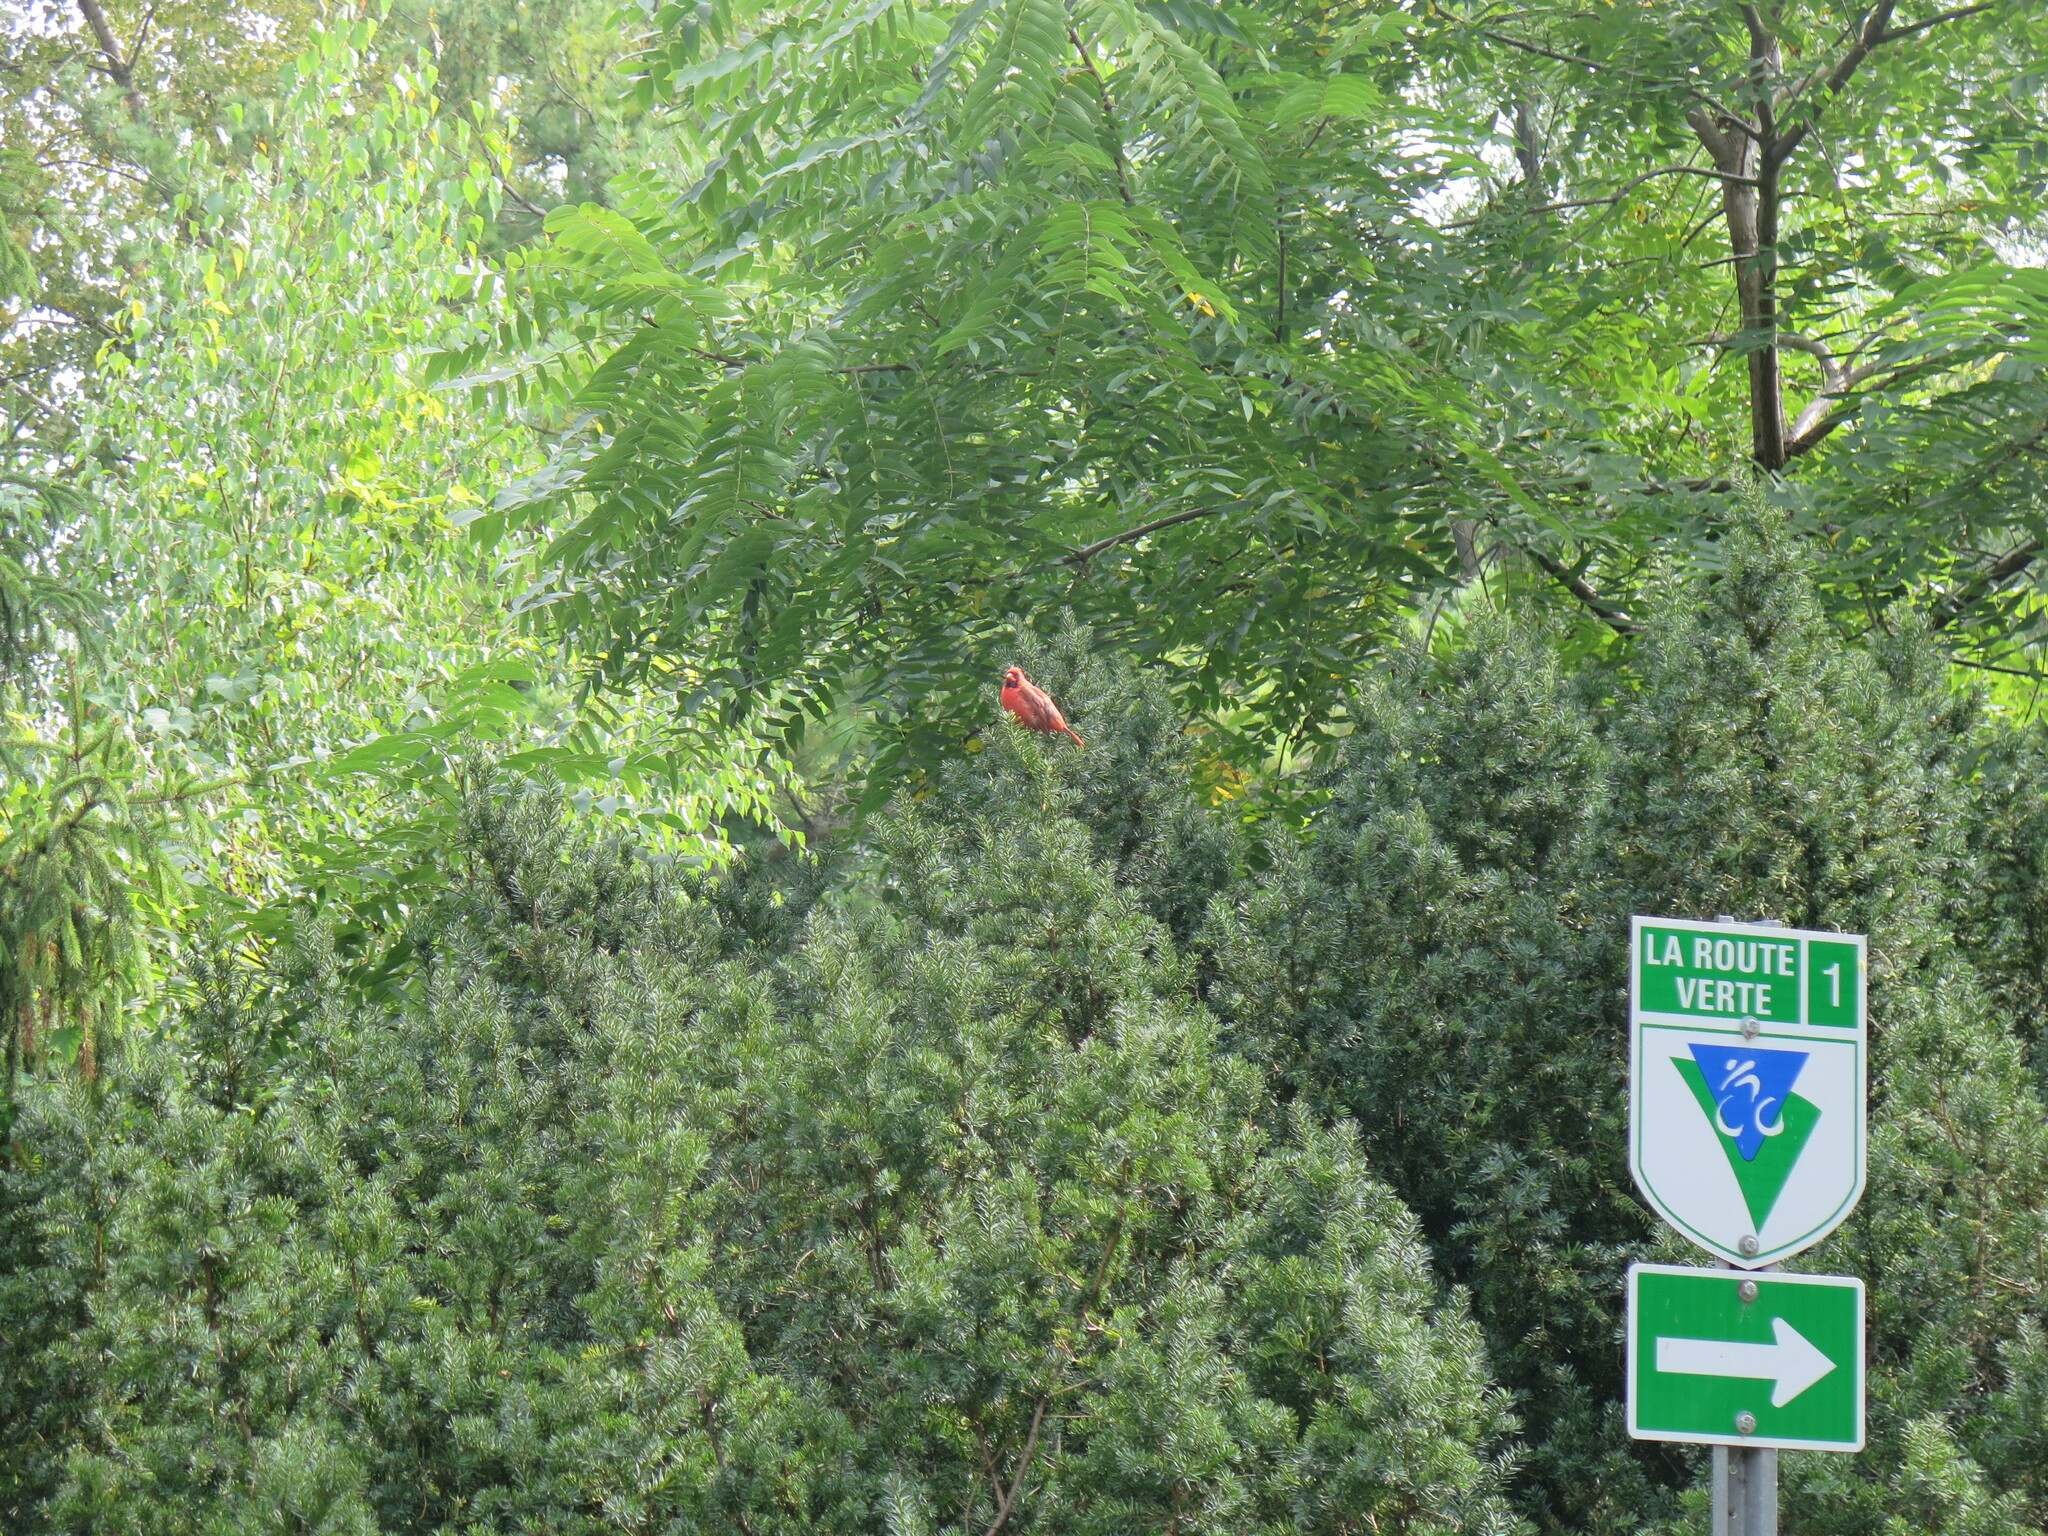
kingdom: Animalia
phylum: Chordata
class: Aves
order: Passeriformes
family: Cardinalidae
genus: Cardinalis
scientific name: Cardinalis cardinalis
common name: Northern cardinal
